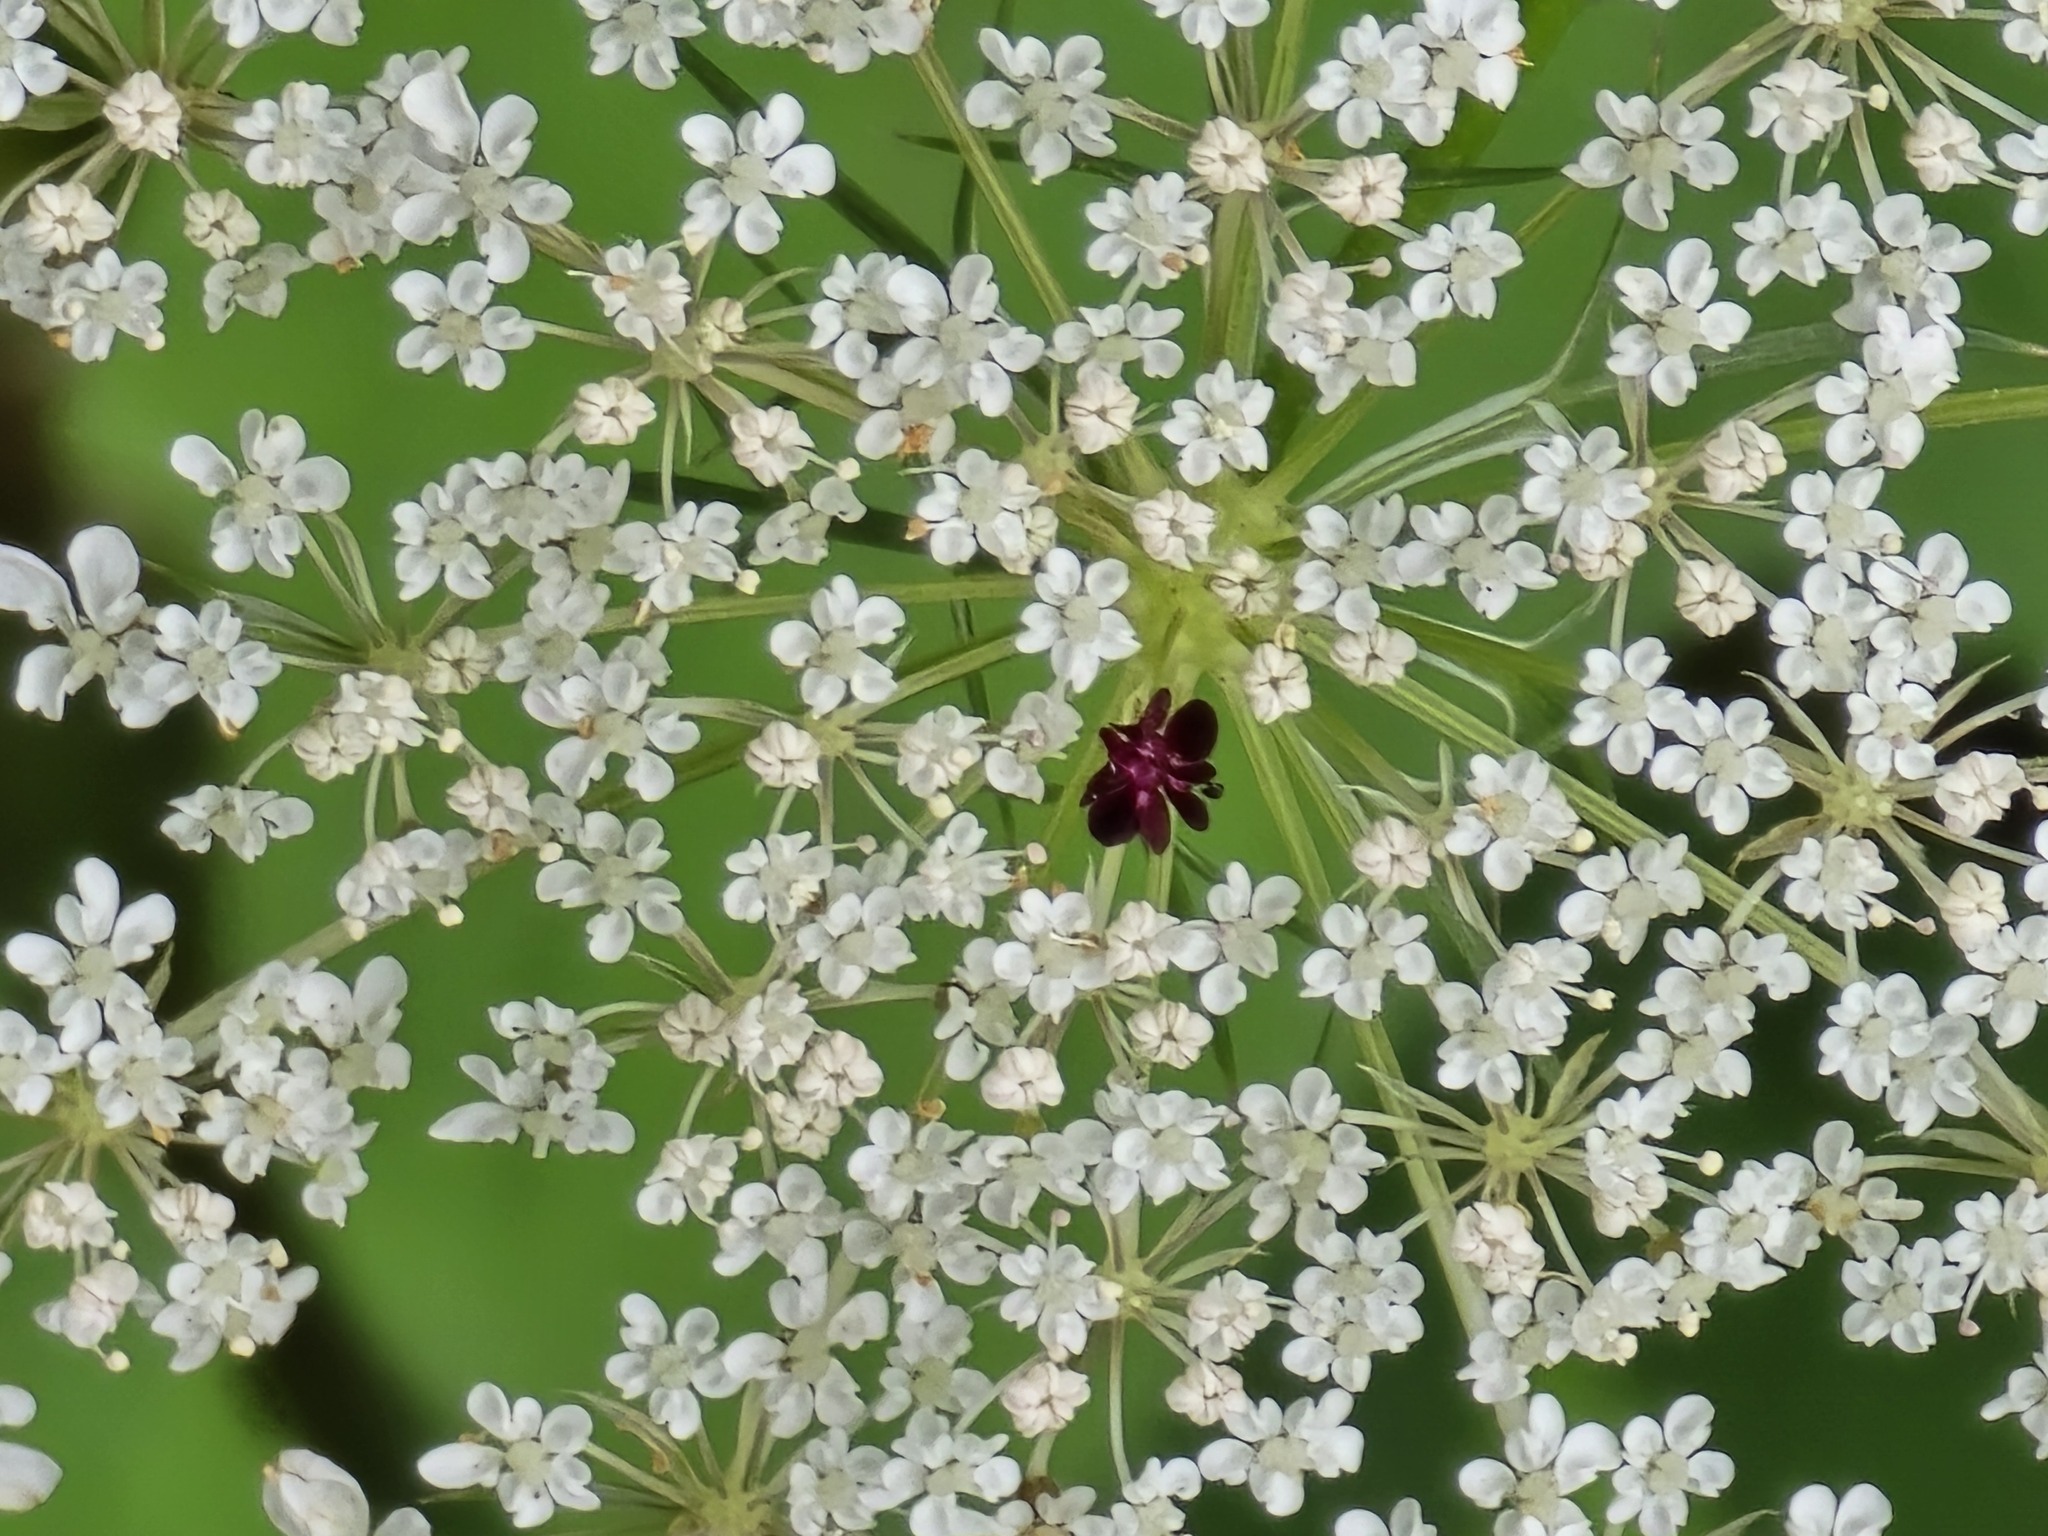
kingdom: Plantae
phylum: Tracheophyta
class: Magnoliopsida
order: Apiales
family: Apiaceae
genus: Daucus
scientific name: Daucus carota
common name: Wild carrot
